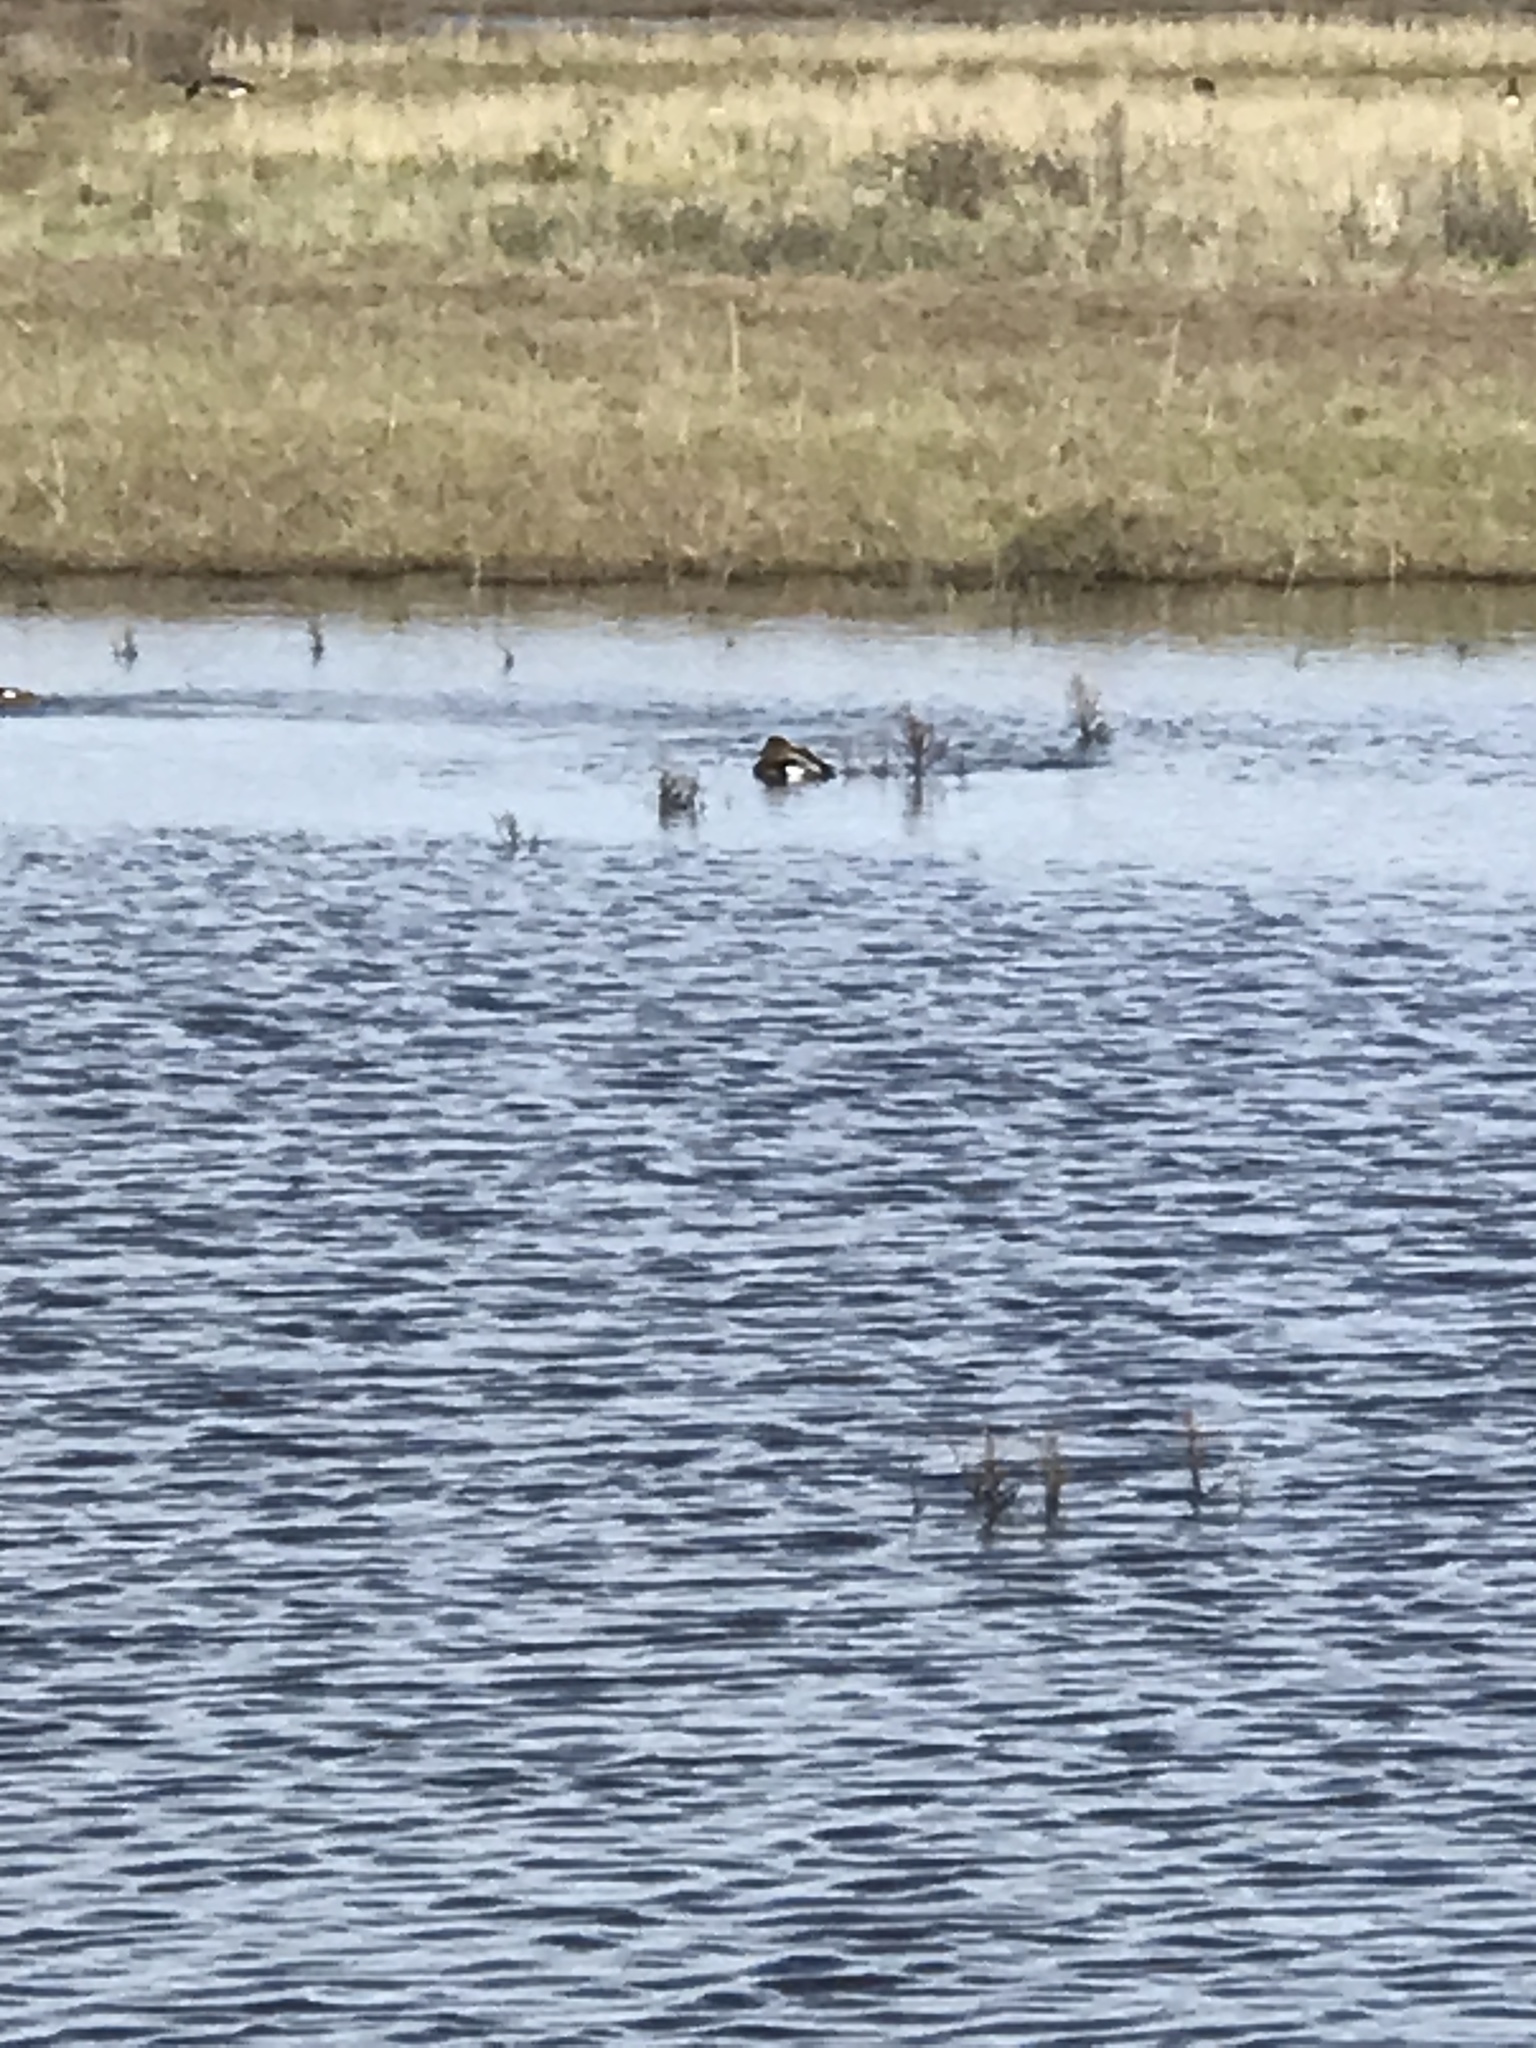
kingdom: Animalia
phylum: Chordata
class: Aves
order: Anseriformes
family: Anatidae
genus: Mareca
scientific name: Mareca strepera
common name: Gadwall
